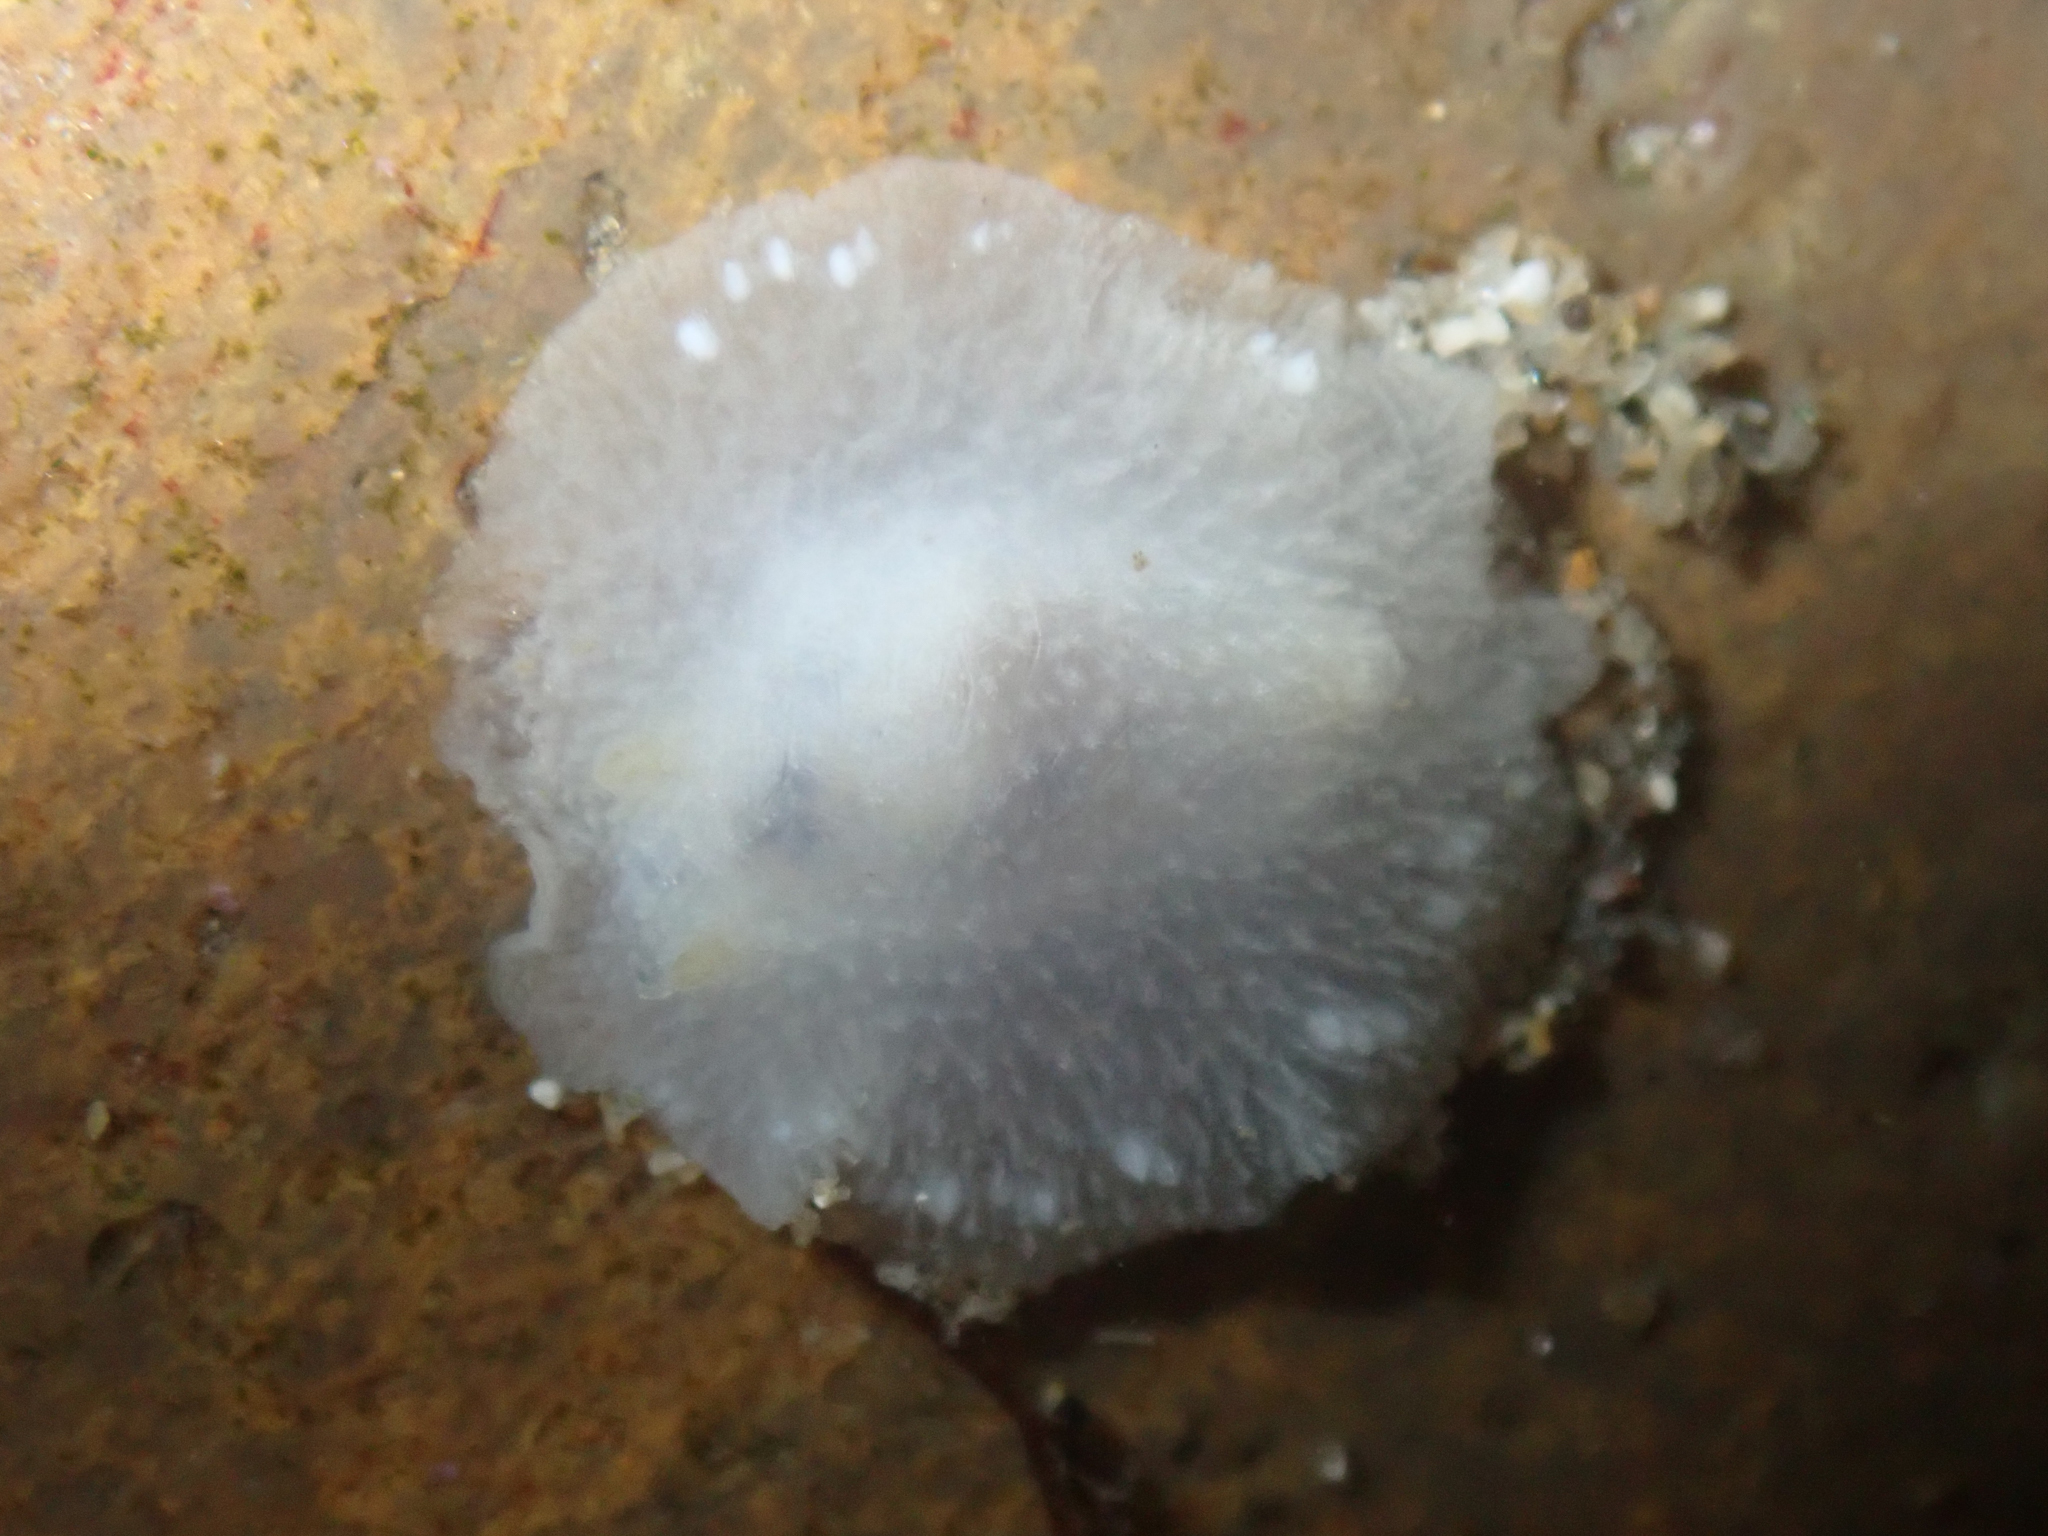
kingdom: Animalia
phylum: Mollusca
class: Gastropoda
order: Nudibranchia
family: Dorididae
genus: Conualevia
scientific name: Conualevia alba
